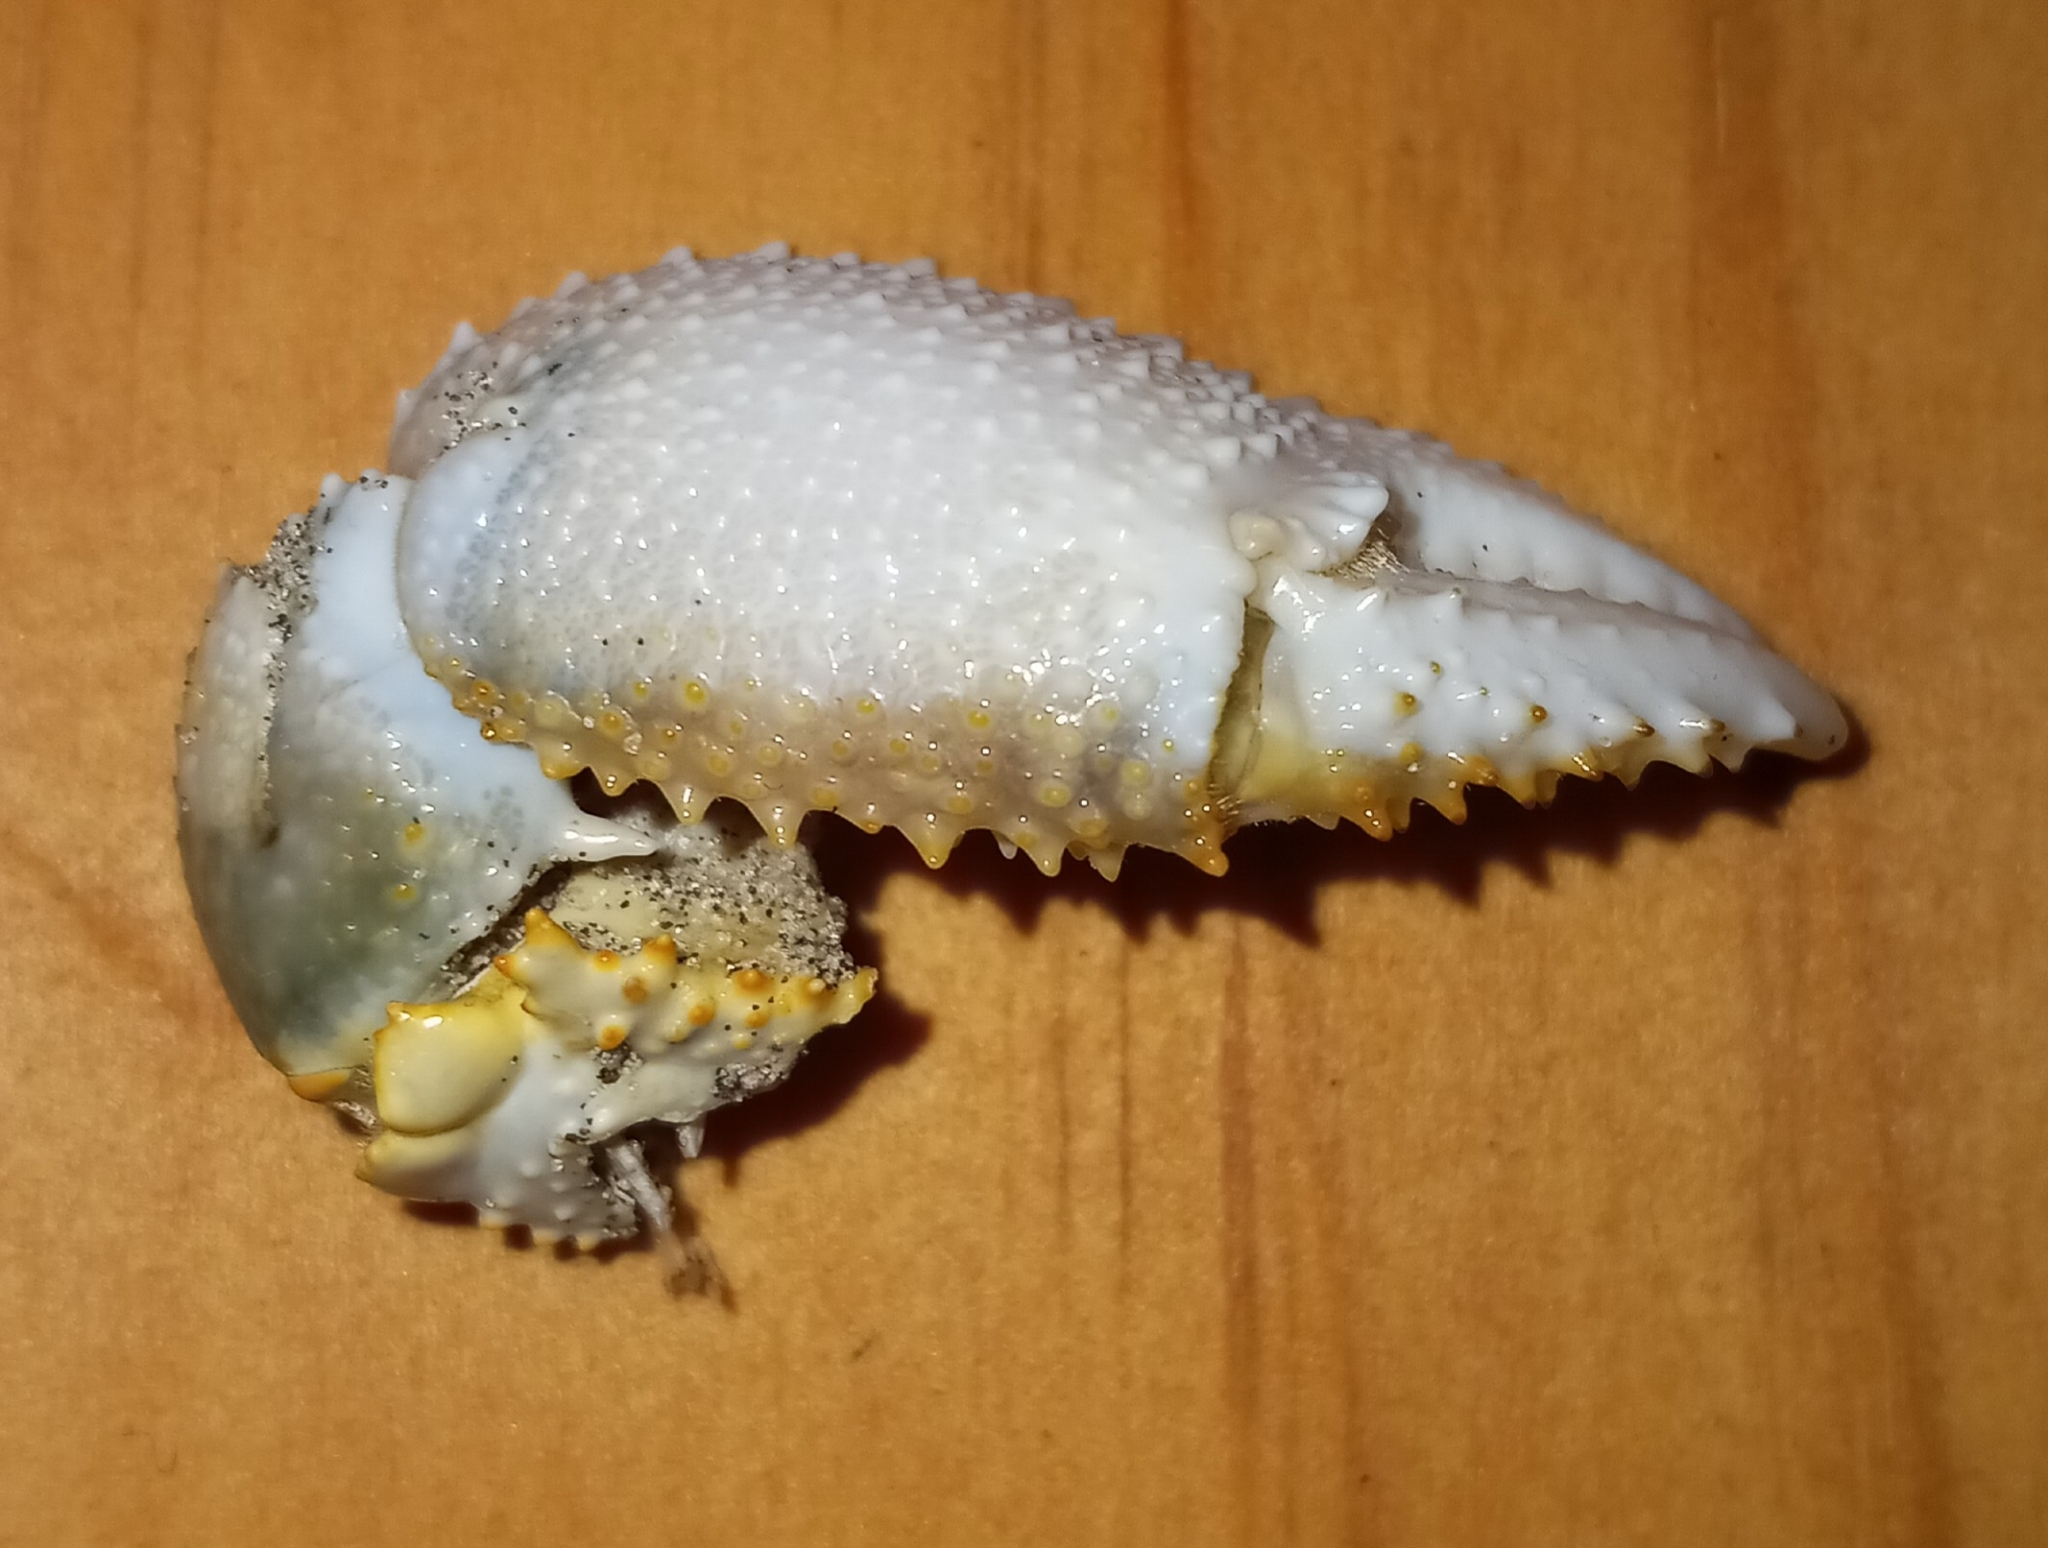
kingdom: Animalia
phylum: Arthropoda
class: Malacostraca
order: Decapoda
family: Ocypodidae
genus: Ocypode
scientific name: Ocypode quadrata
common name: Ghost crab
